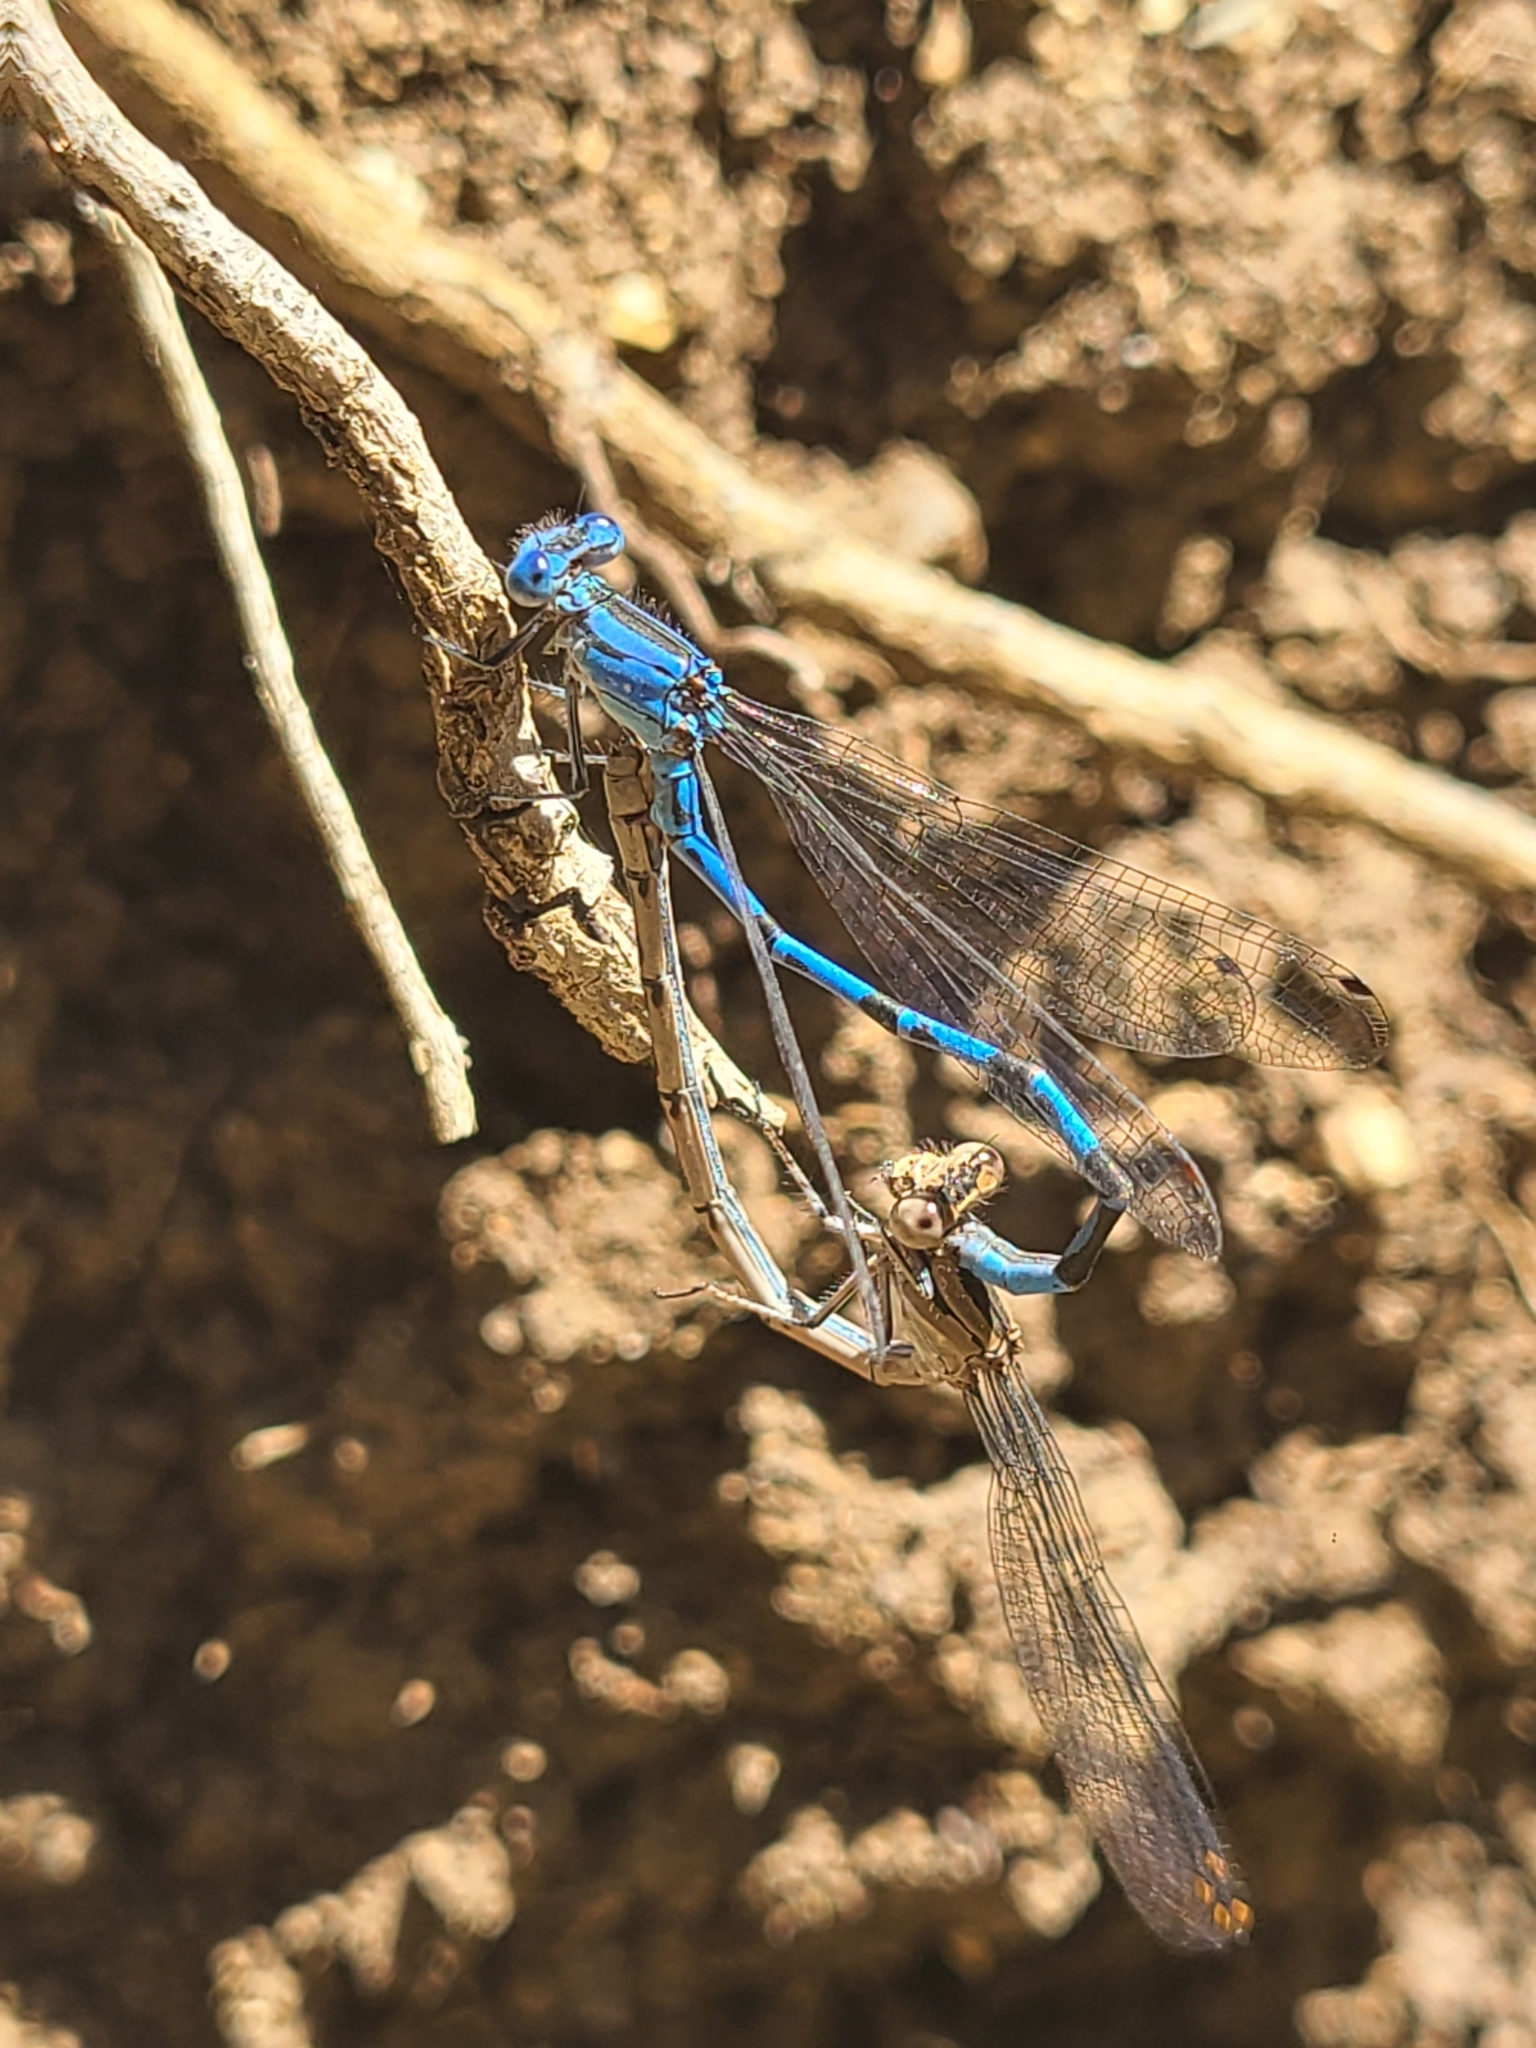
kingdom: Animalia
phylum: Arthropoda
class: Insecta
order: Odonata
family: Coenagrionidae
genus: Argia
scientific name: Argia vivida
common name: Vivid dancer
